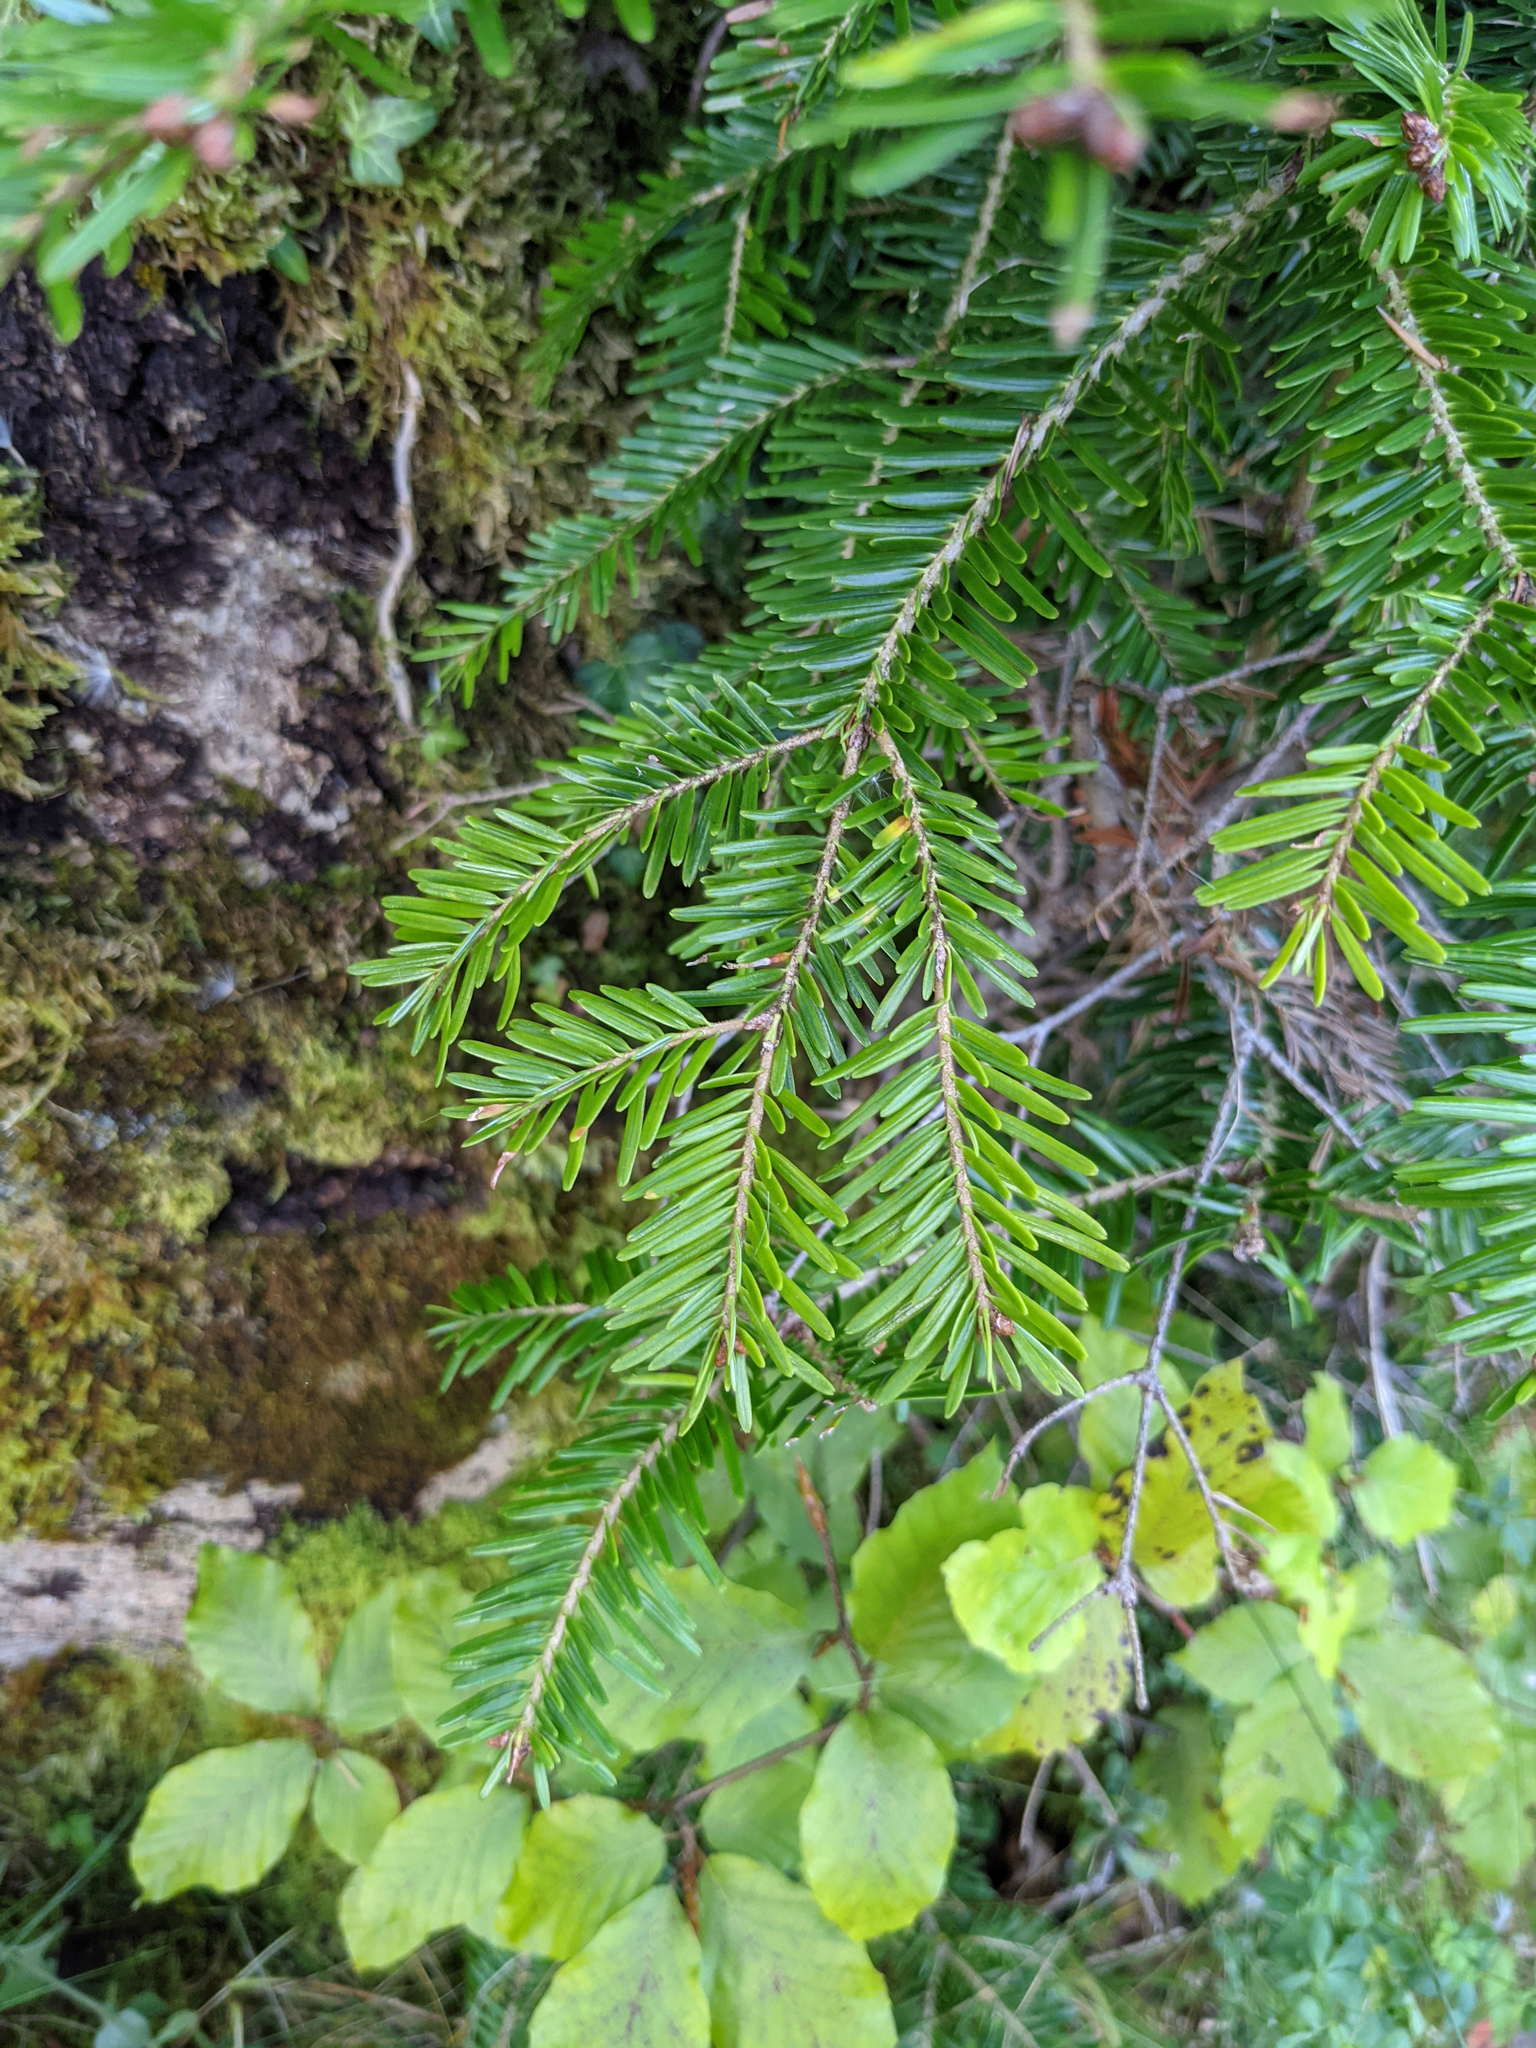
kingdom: Plantae
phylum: Tracheophyta
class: Pinopsida
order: Pinales
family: Pinaceae
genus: Abies
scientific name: Abies alba
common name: Silver fir
